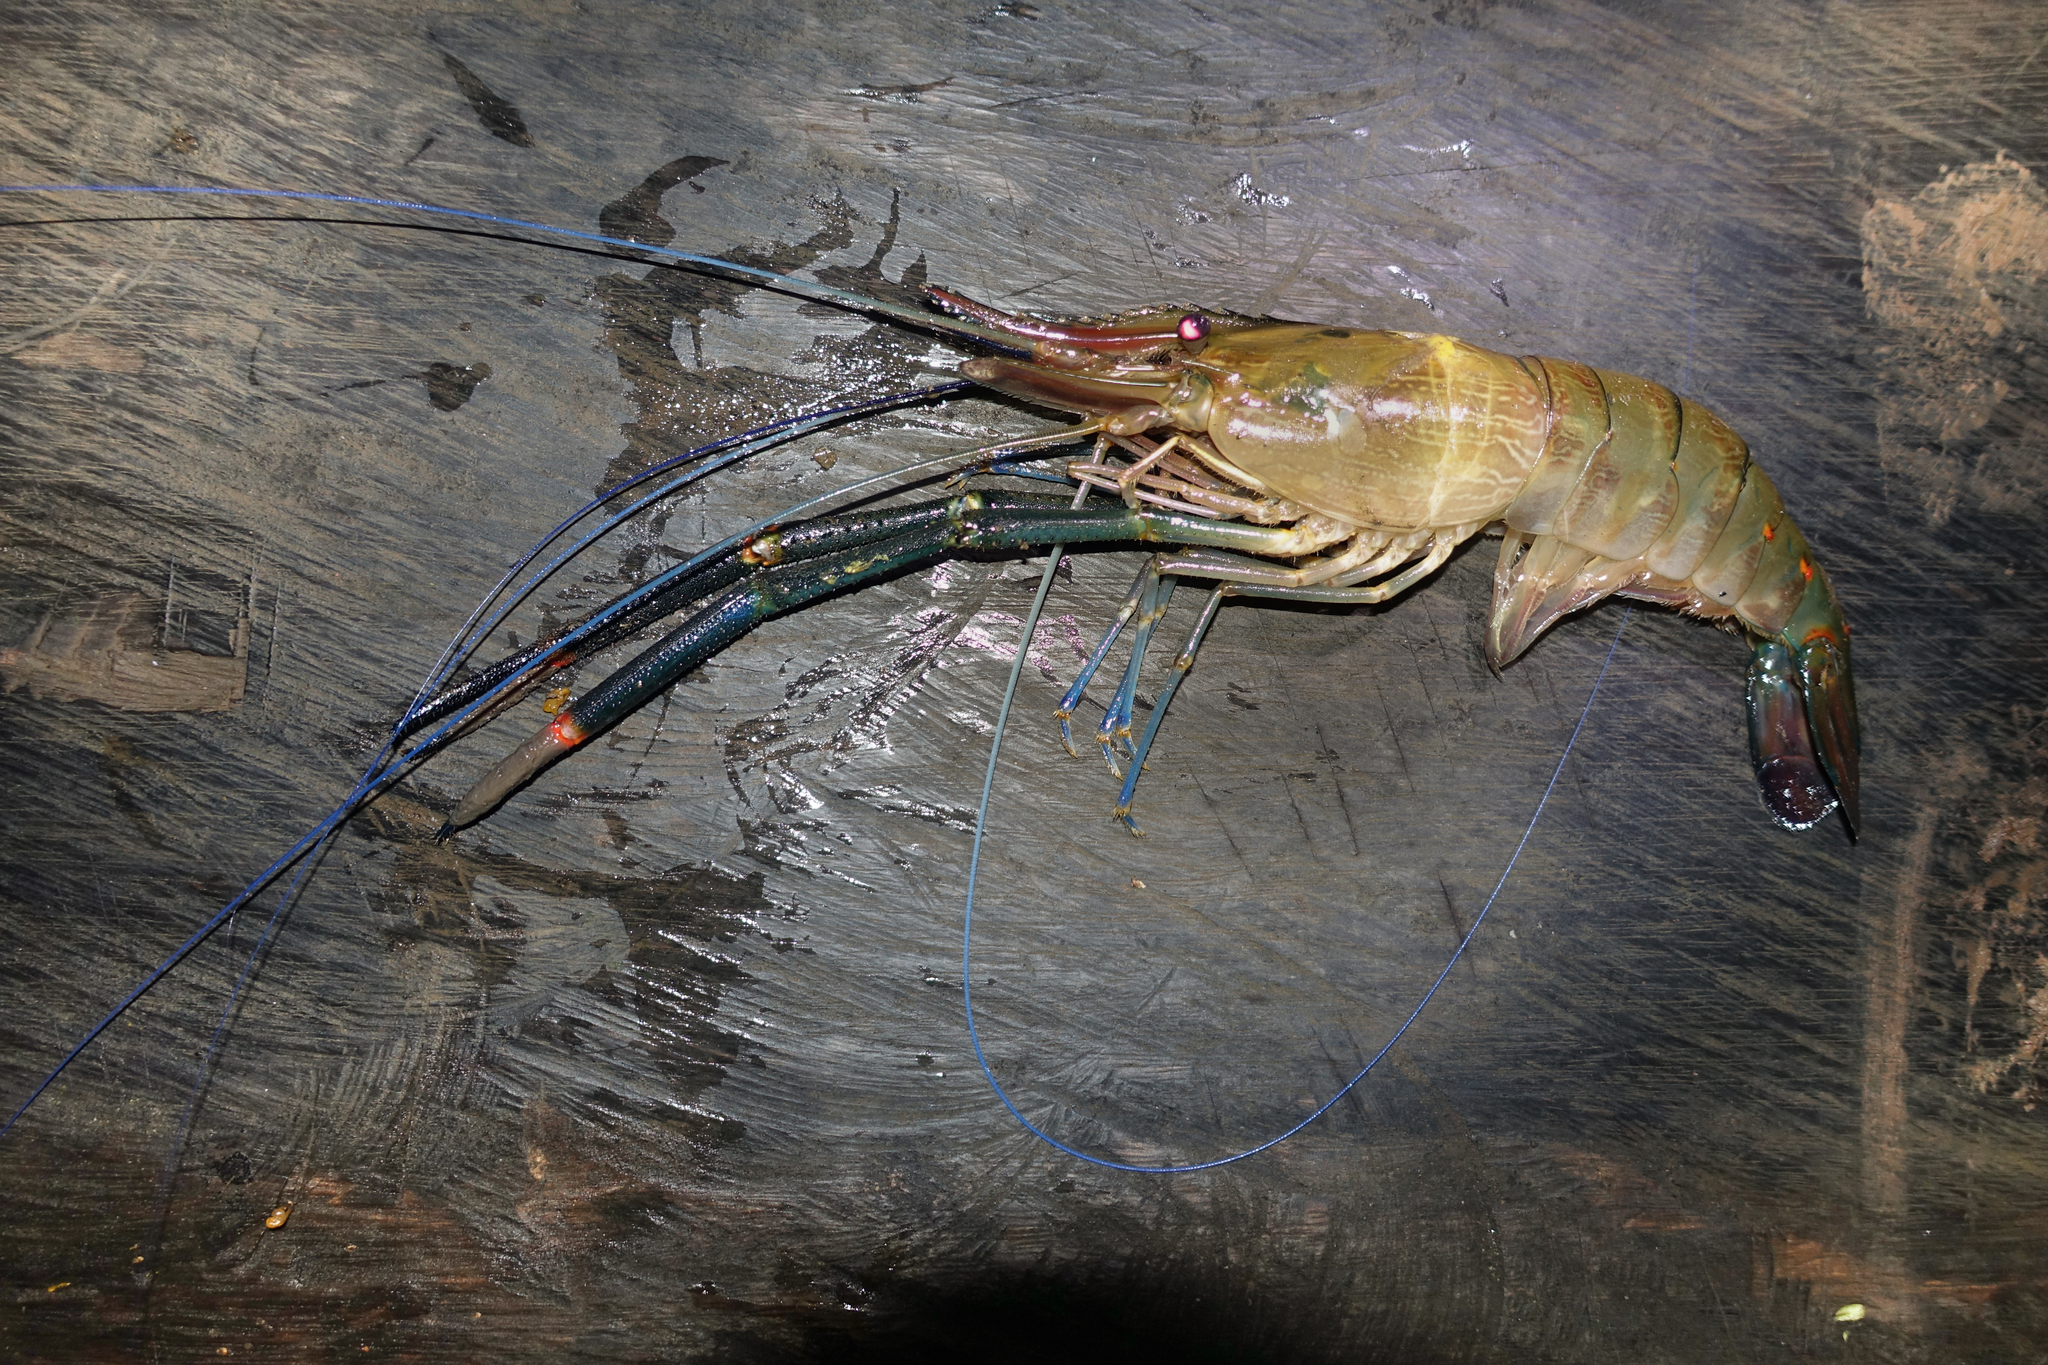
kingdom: Animalia
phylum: Arthropoda
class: Malacostraca
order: Decapoda
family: Palaemonidae
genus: Macrobrachium
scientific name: Macrobrachium spinipes
